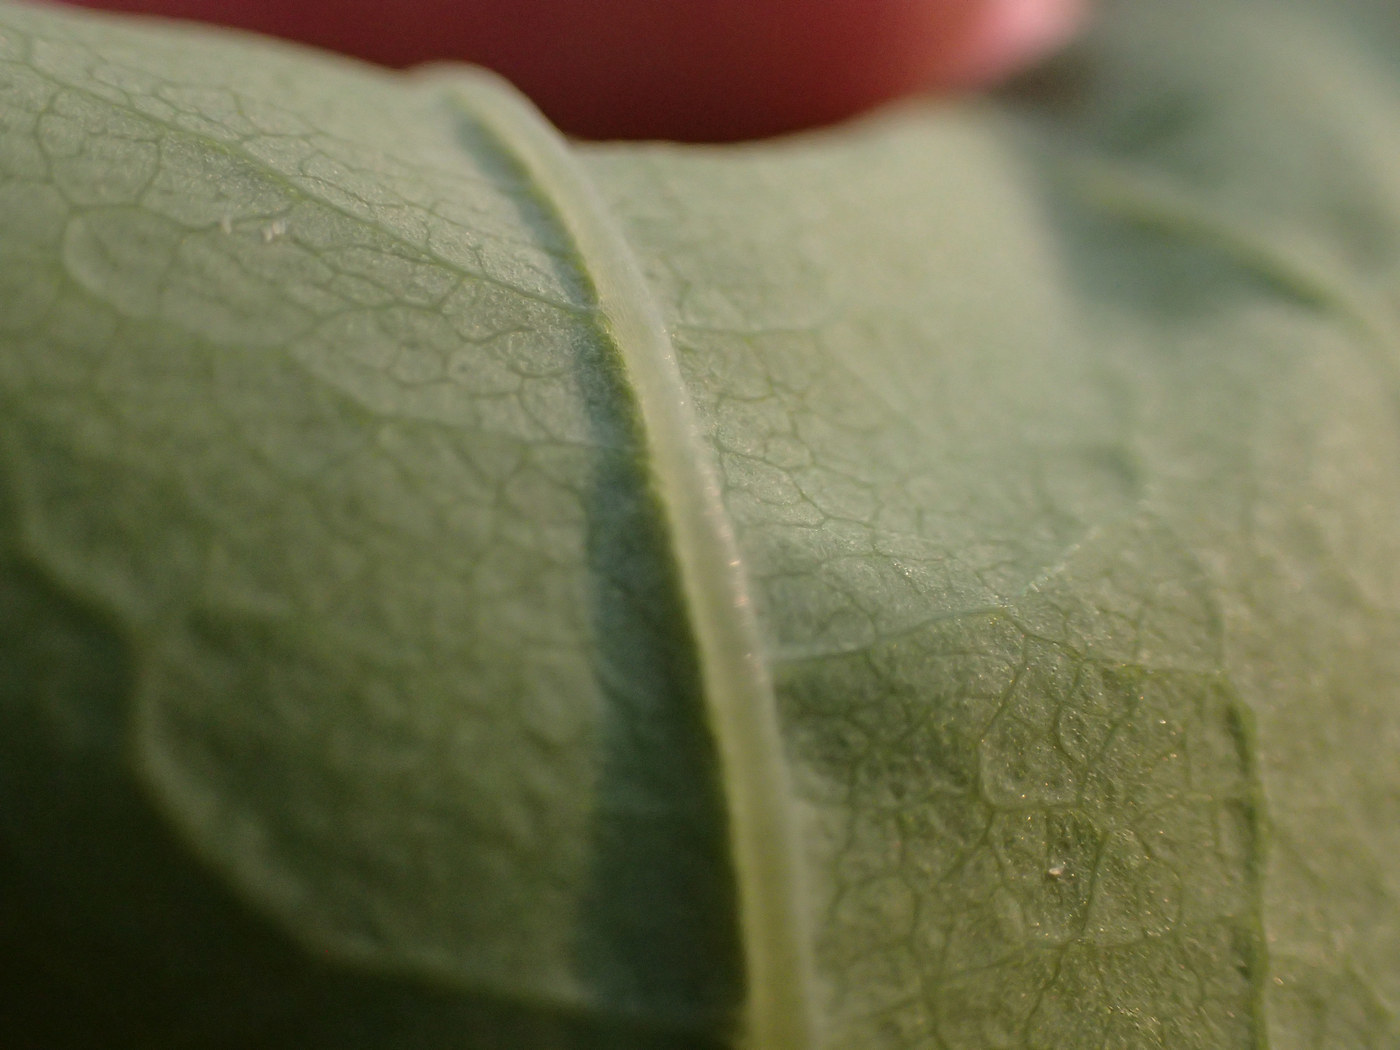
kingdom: Plantae
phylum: Tracheophyta
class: Liliopsida
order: Liliales
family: Smilacaceae
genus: Smilax
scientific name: Smilax biltmoreana
